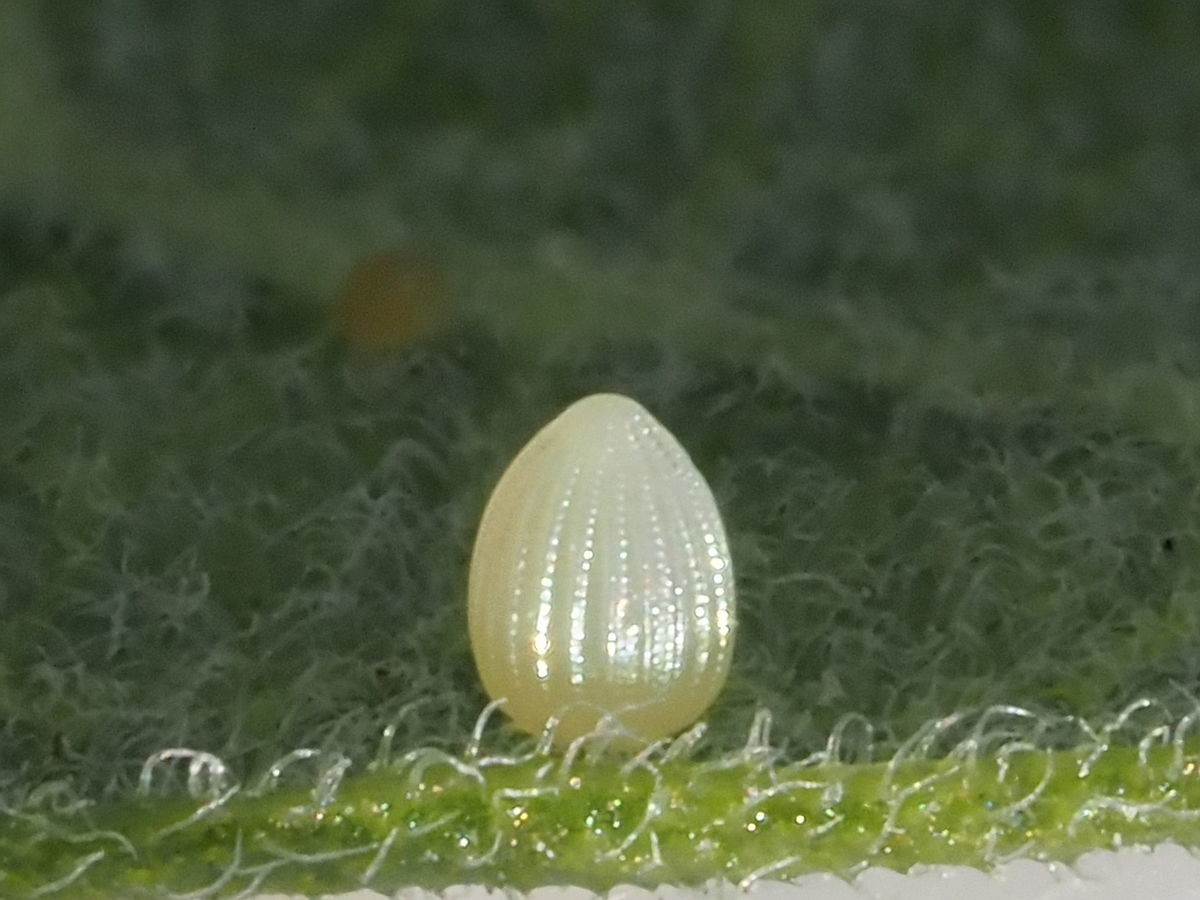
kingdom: Animalia
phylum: Arthropoda
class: Insecta
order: Lepidoptera
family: Nymphalidae
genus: Danaus
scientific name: Danaus plexippus
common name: Monarch
